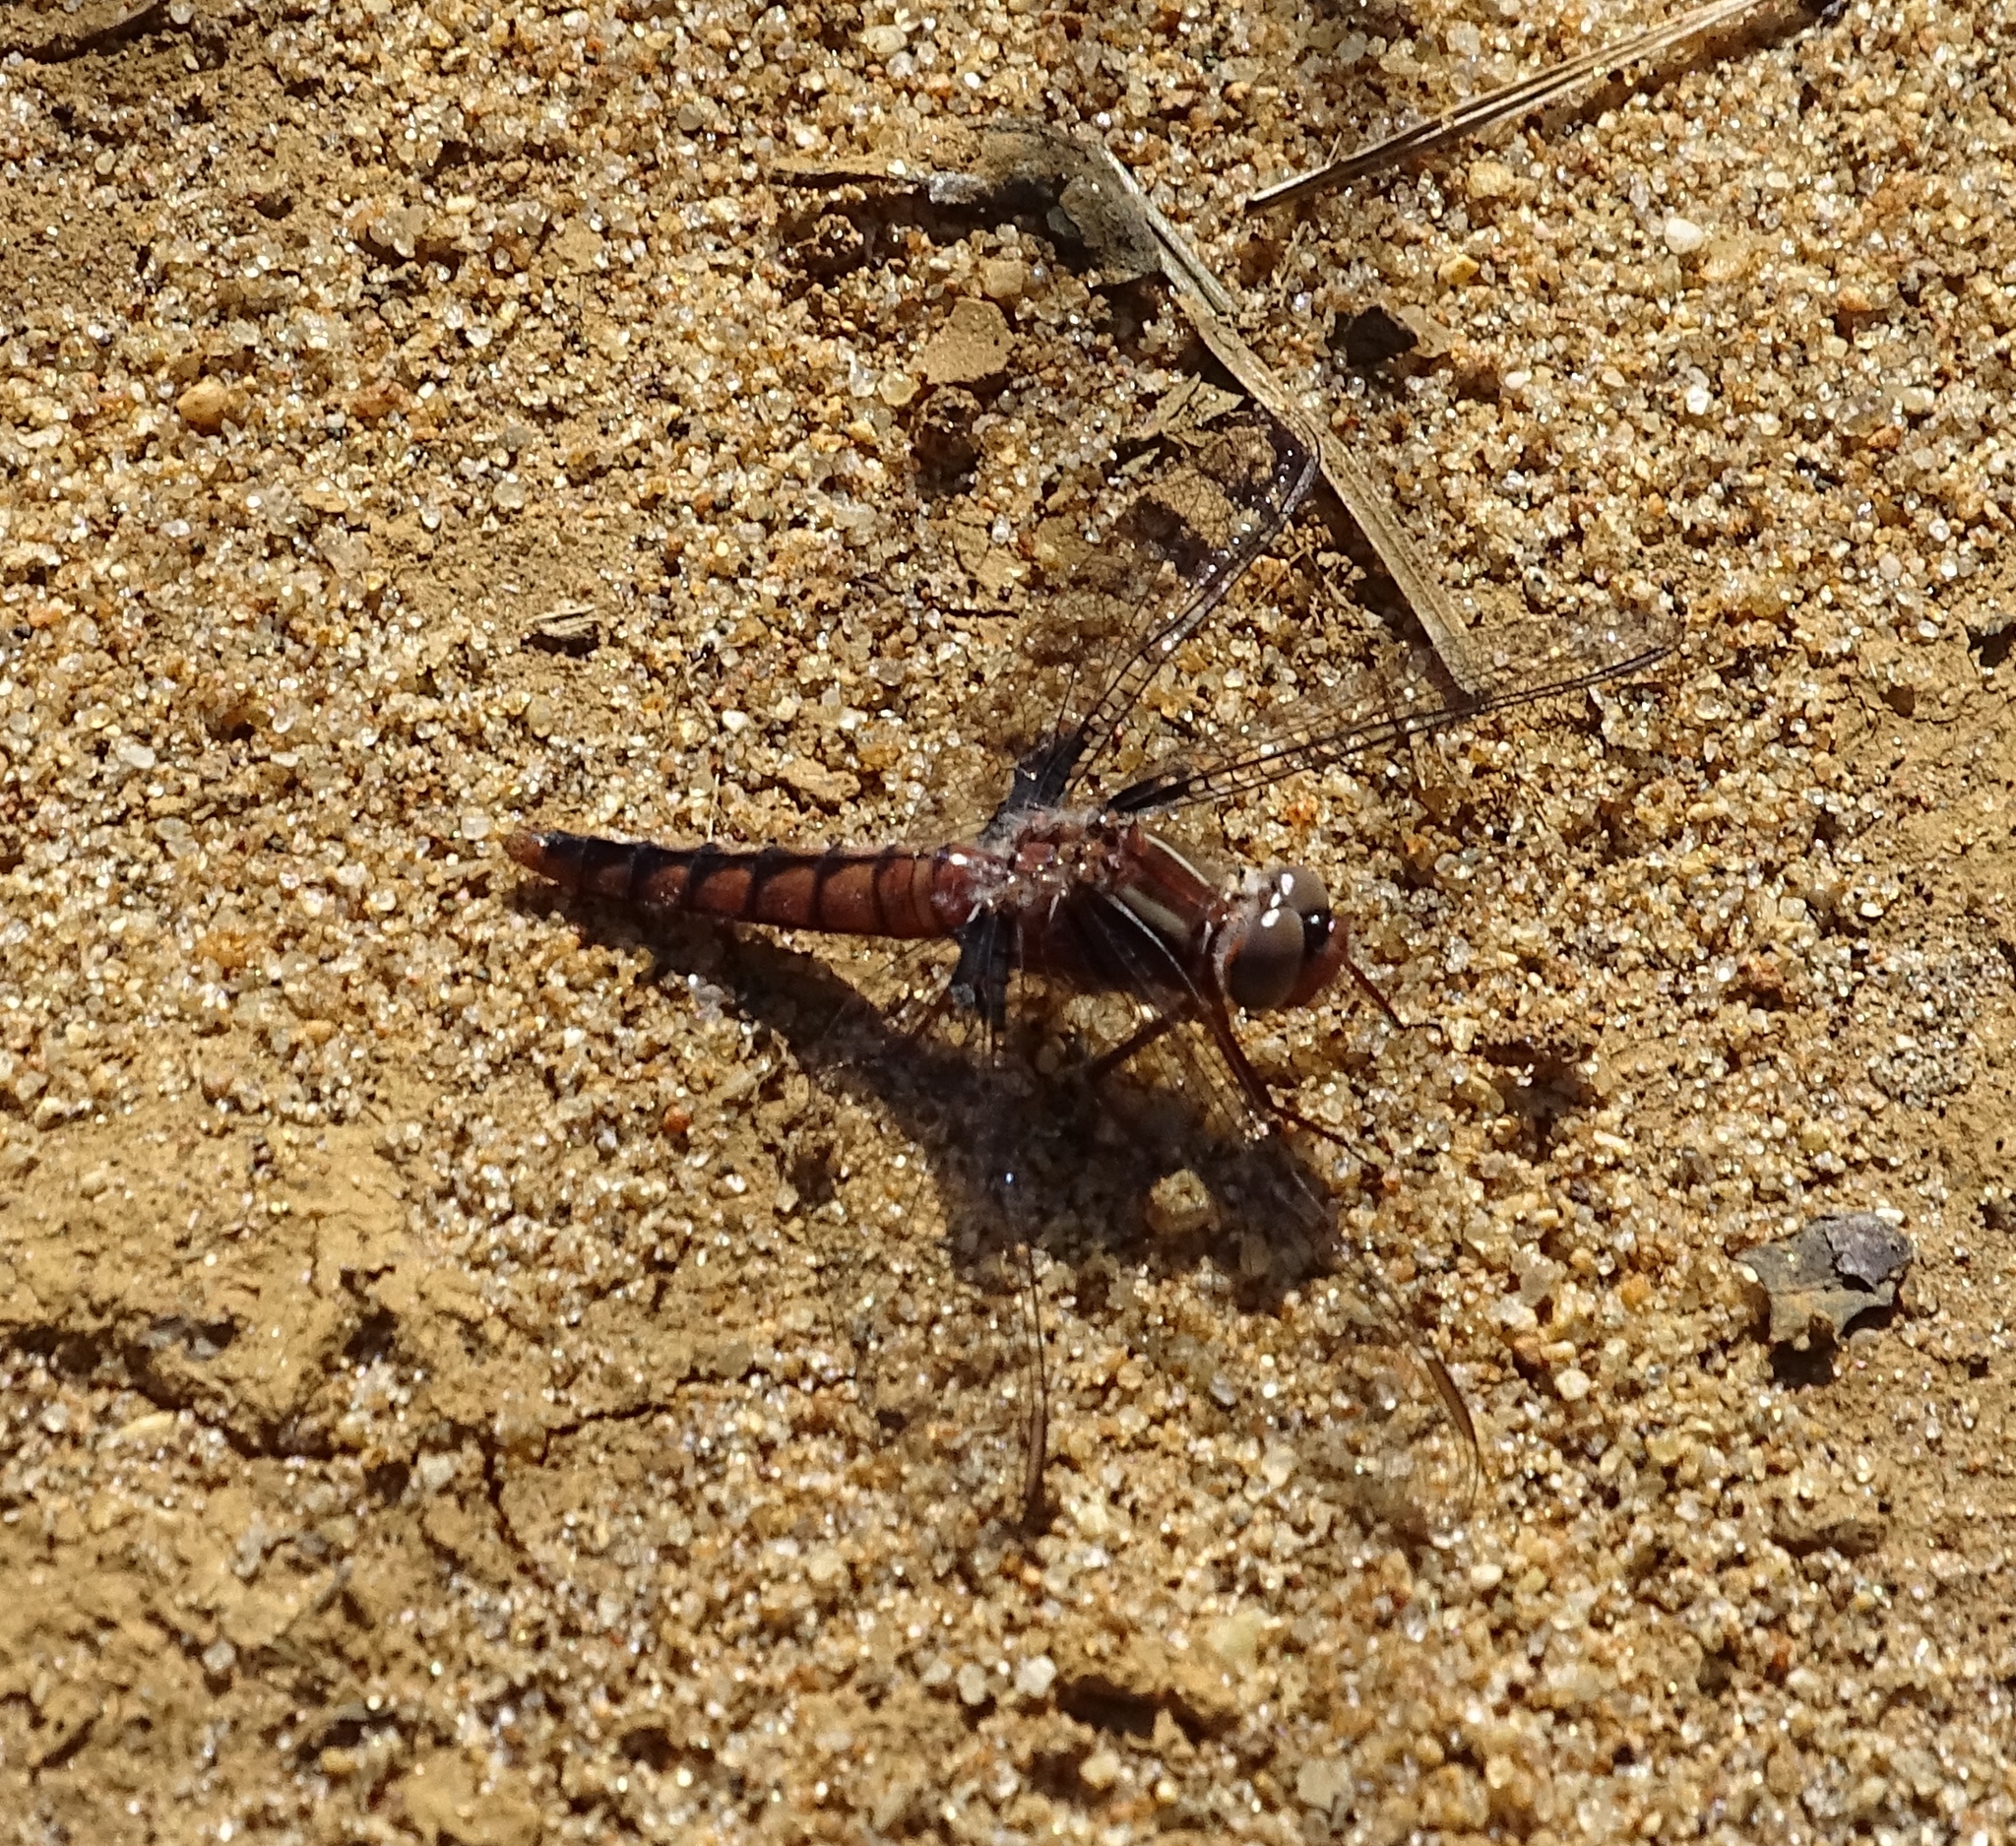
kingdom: Animalia
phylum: Arthropoda
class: Insecta
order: Odonata
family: Libellulidae
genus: Ladona
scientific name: Ladona deplanata
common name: Blue corporal
